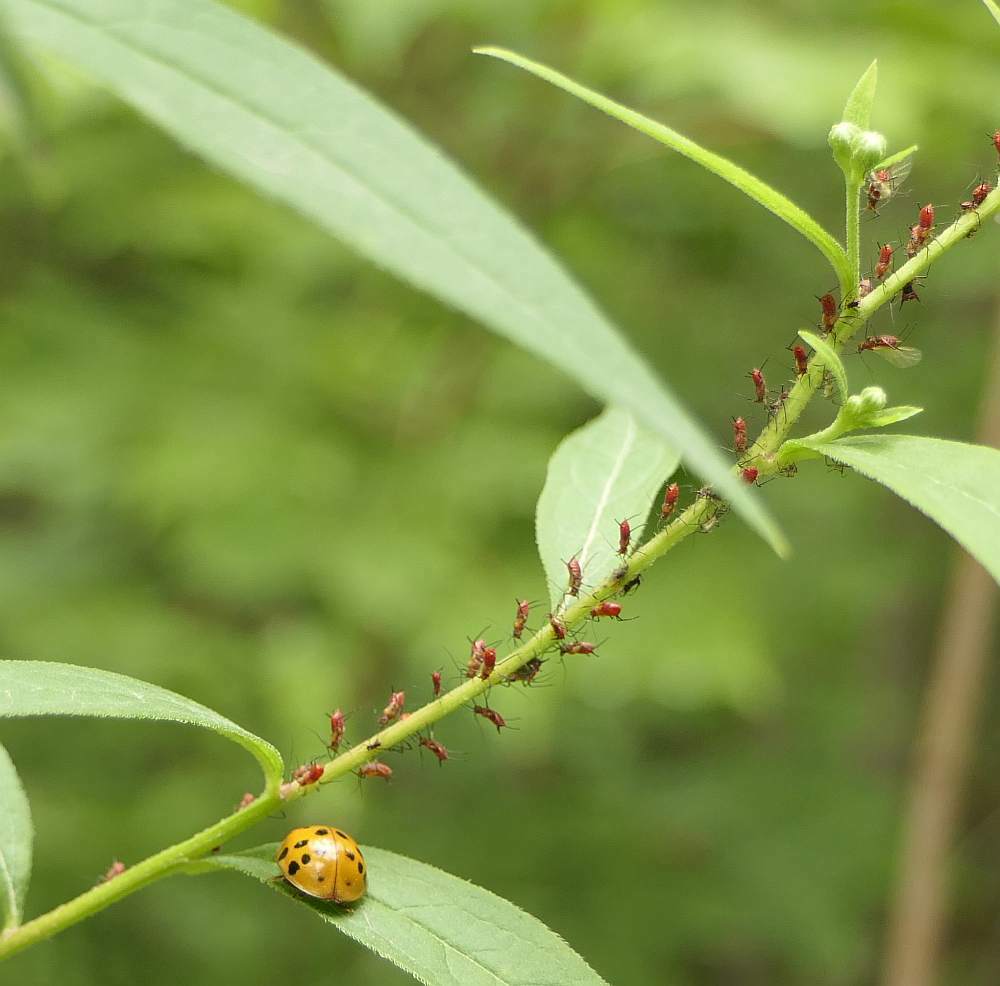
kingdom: Animalia
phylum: Arthropoda
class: Insecta
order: Coleoptera
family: Coccinellidae
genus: Harmonia
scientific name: Harmonia axyridis
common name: Harlequin ladybird
